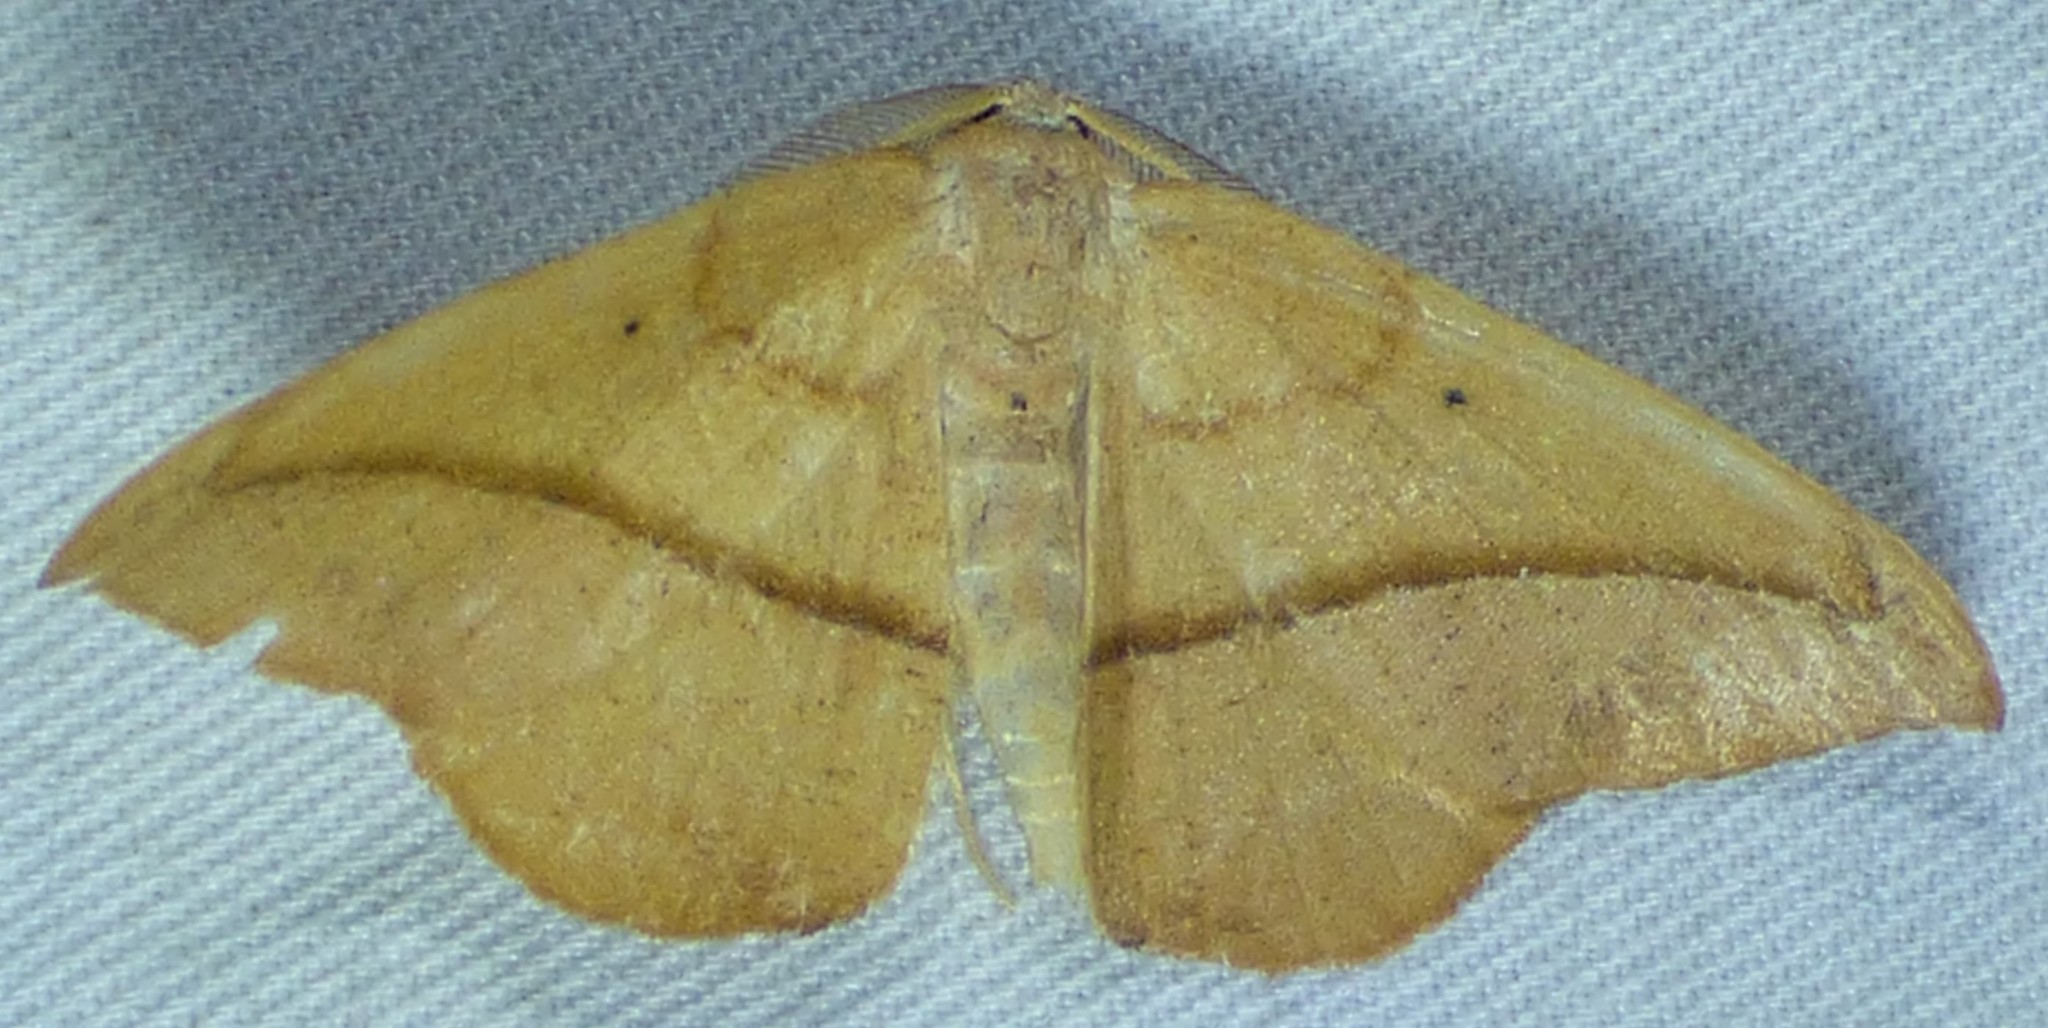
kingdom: Animalia
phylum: Arthropoda
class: Insecta
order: Lepidoptera
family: Geometridae
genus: Patalene
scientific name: Patalene olyzonaria
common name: Juniper geometer moth
